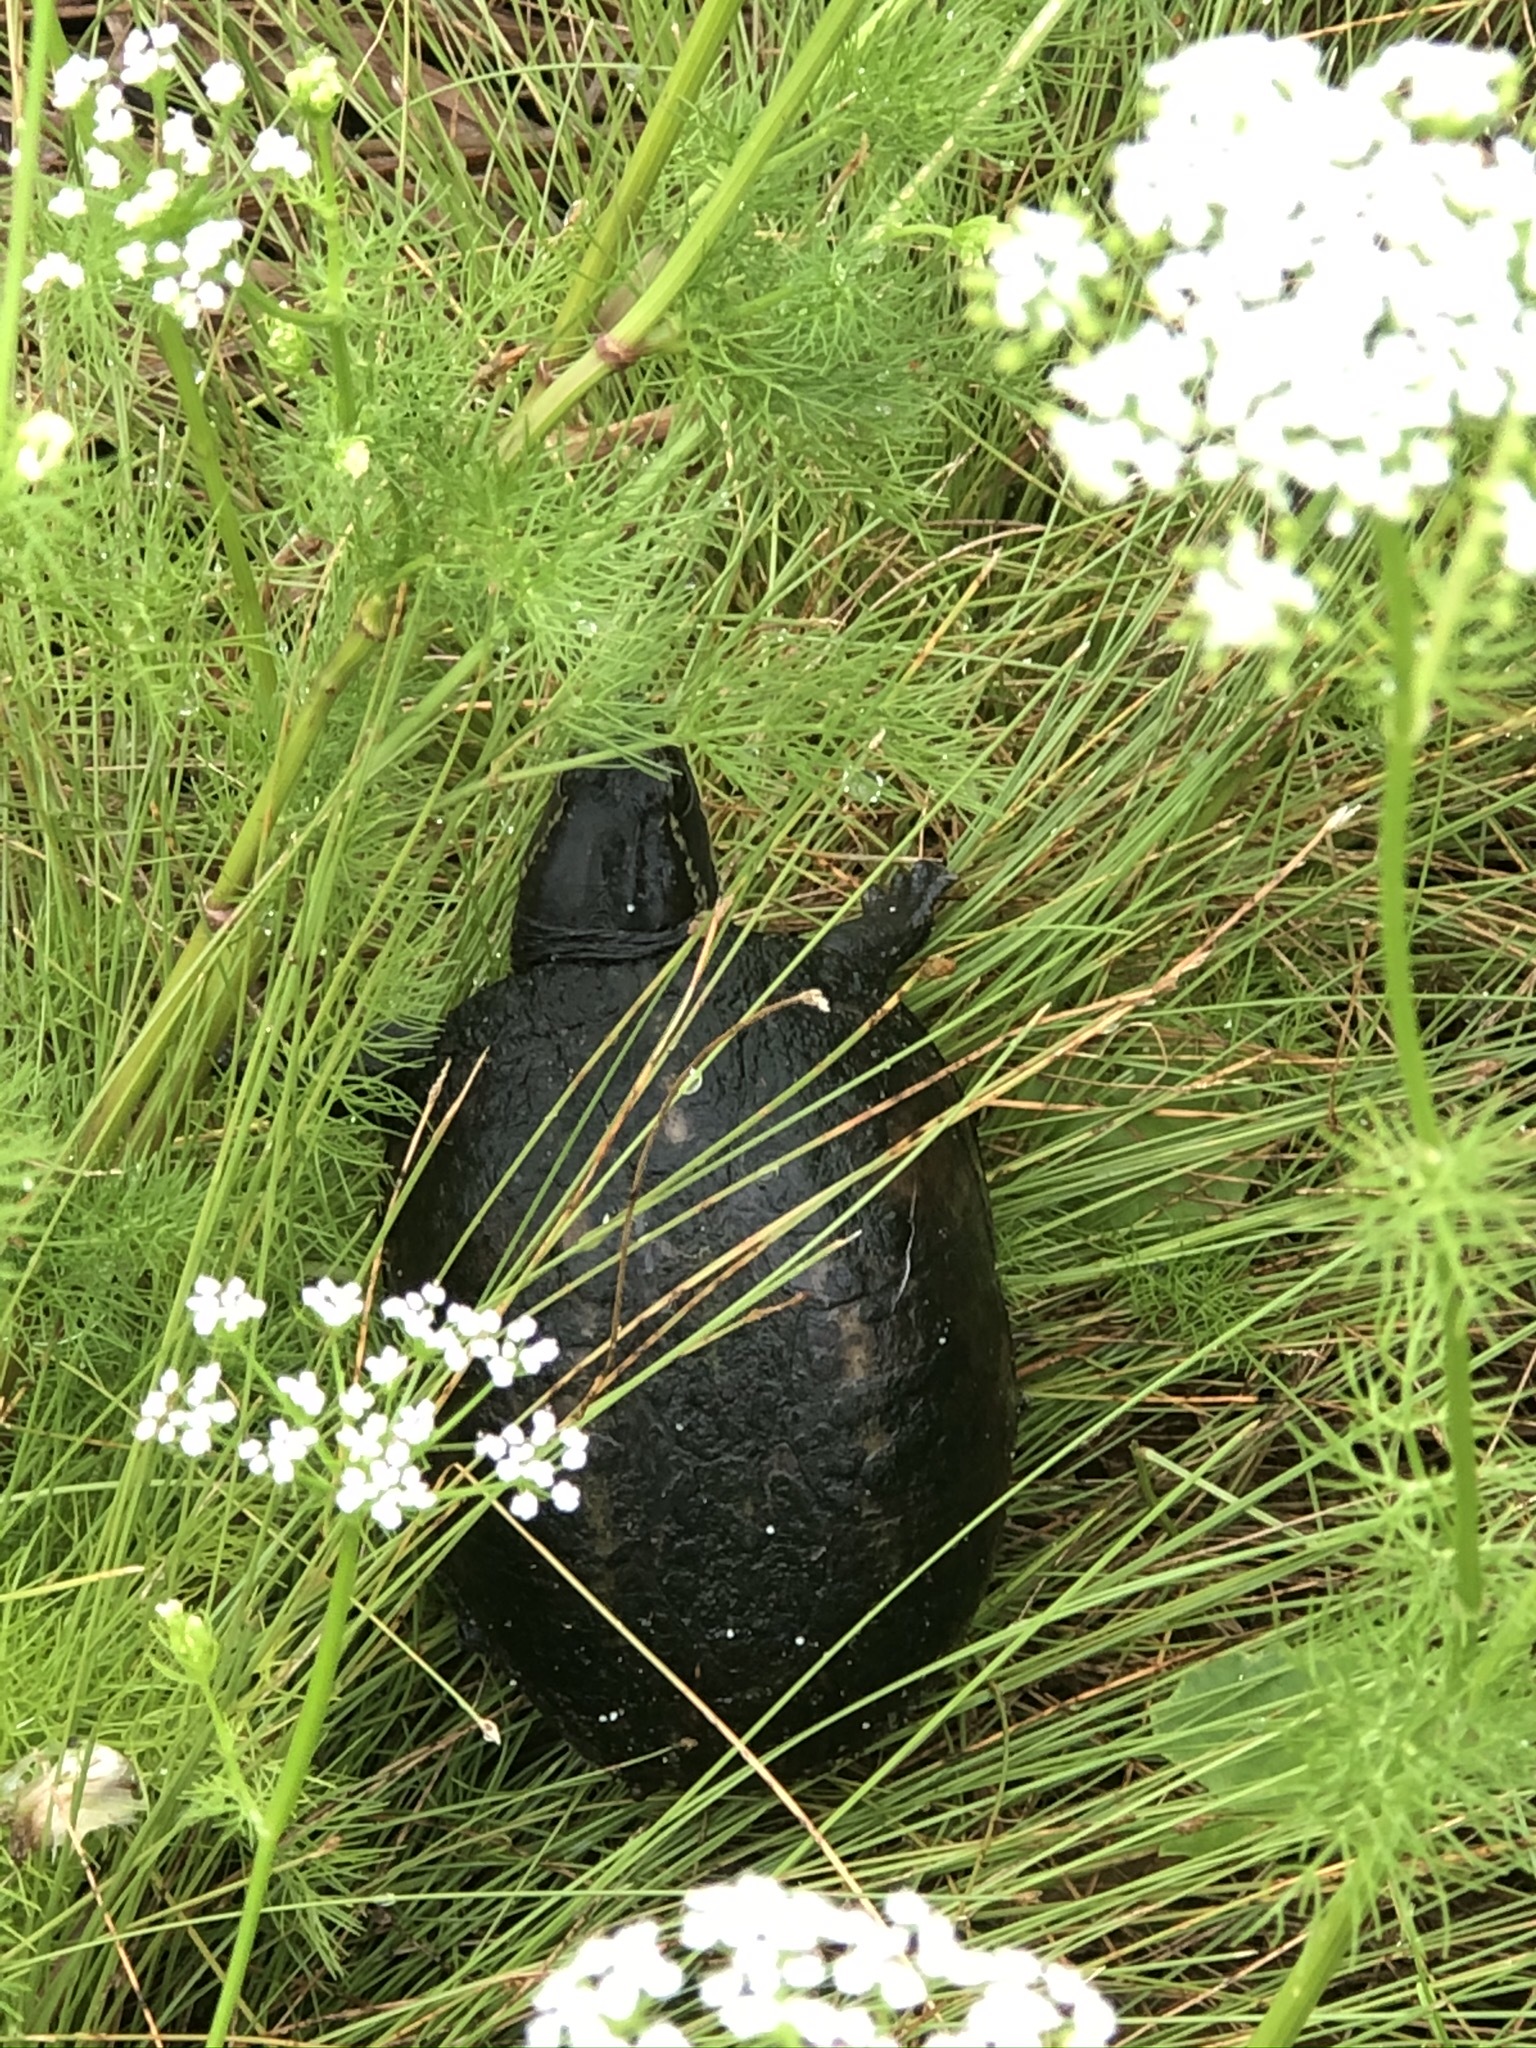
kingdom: Animalia
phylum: Chordata
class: Testudines
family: Kinosternidae
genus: Kinosternon
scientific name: Kinosternon baurii
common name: Striped mud turtle
